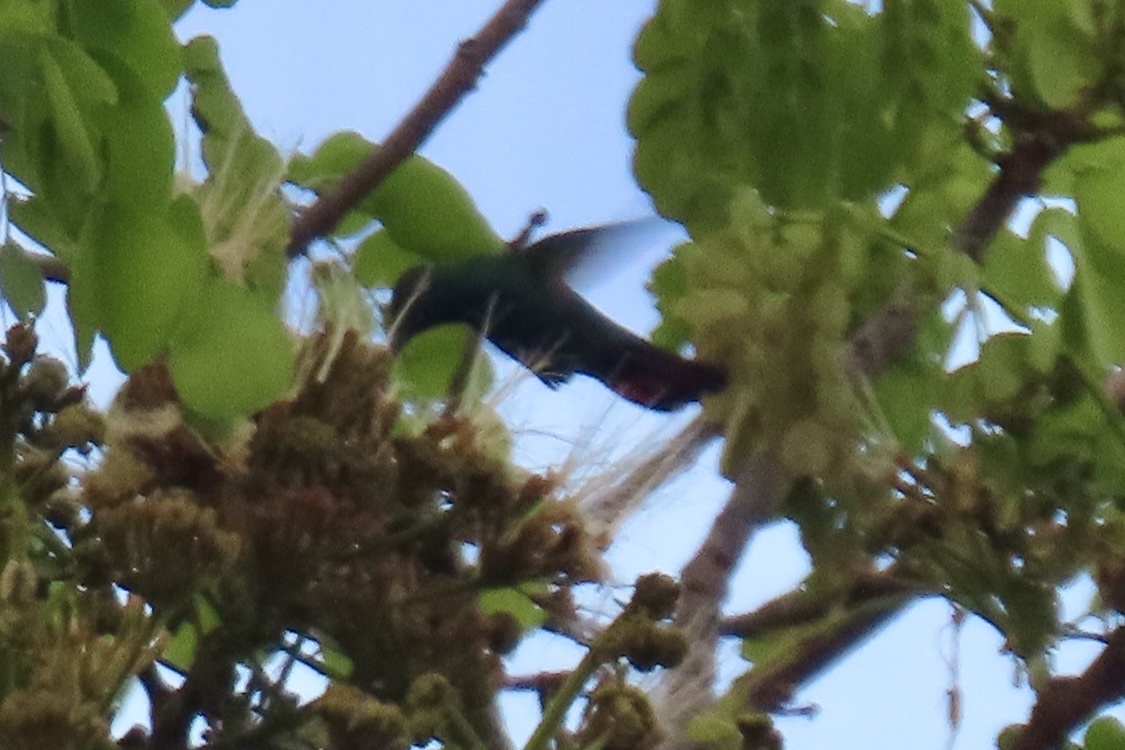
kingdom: Animalia
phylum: Chordata
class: Aves
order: Apodiformes
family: Trochilidae
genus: Anthracothorax
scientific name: Anthracothorax prevostii
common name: Green-breasted mango
